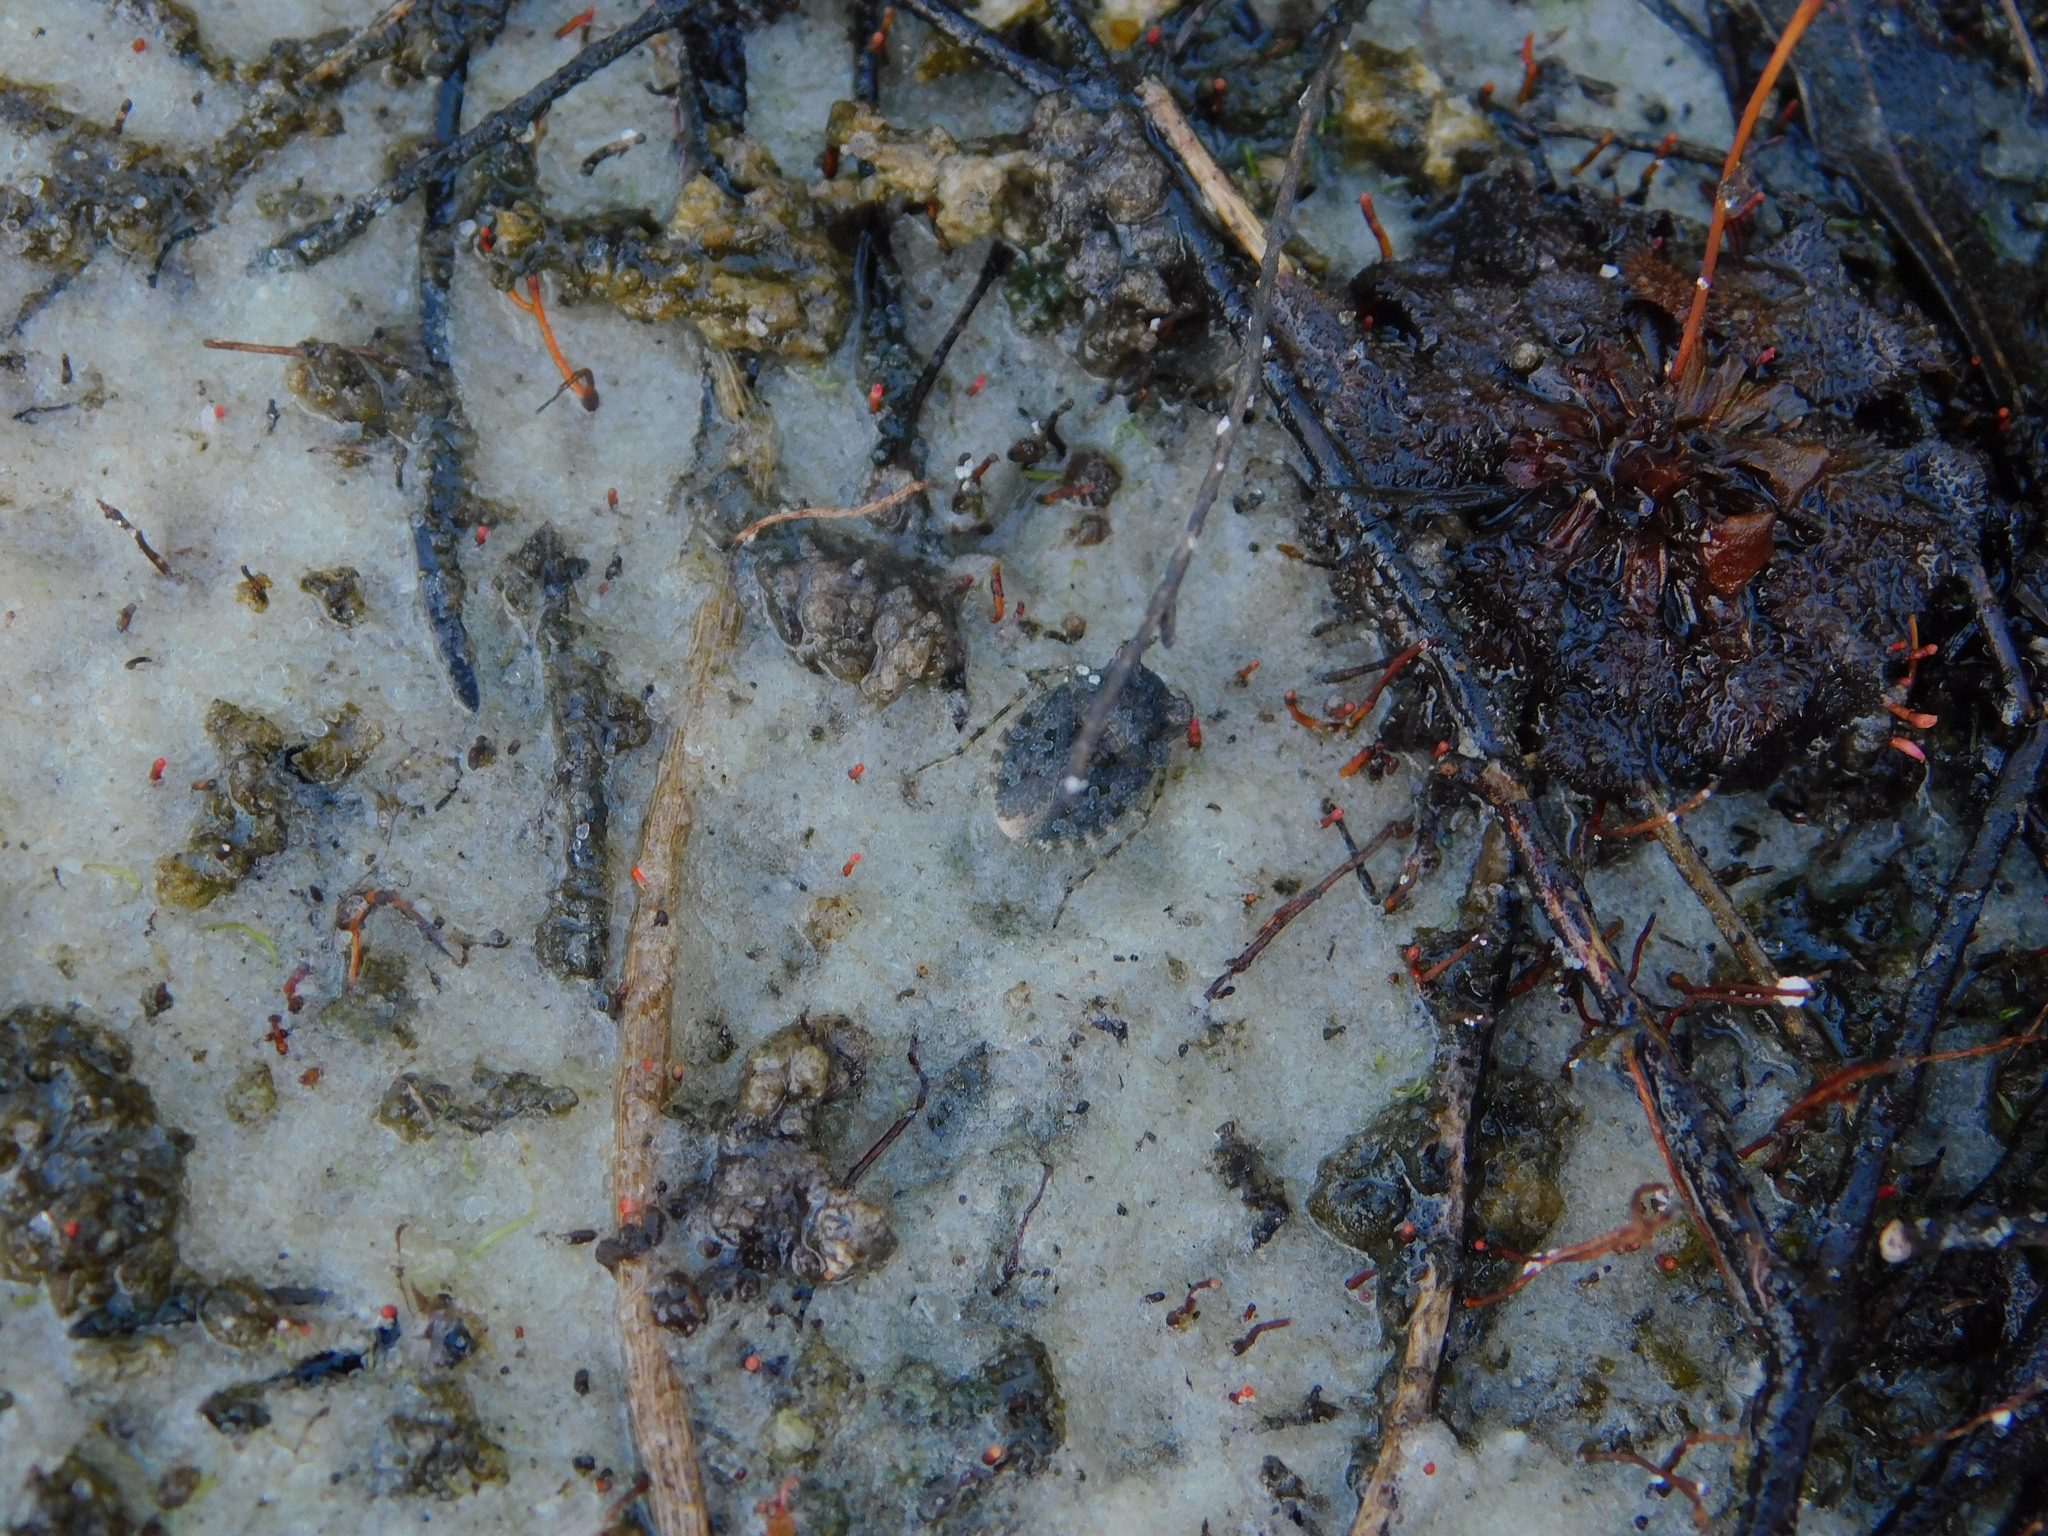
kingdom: Animalia
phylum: Arthropoda
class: Insecta
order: Hemiptera
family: Gelastocoridae
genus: Gelastocoris
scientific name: Gelastocoris oculatus
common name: Toad bug
